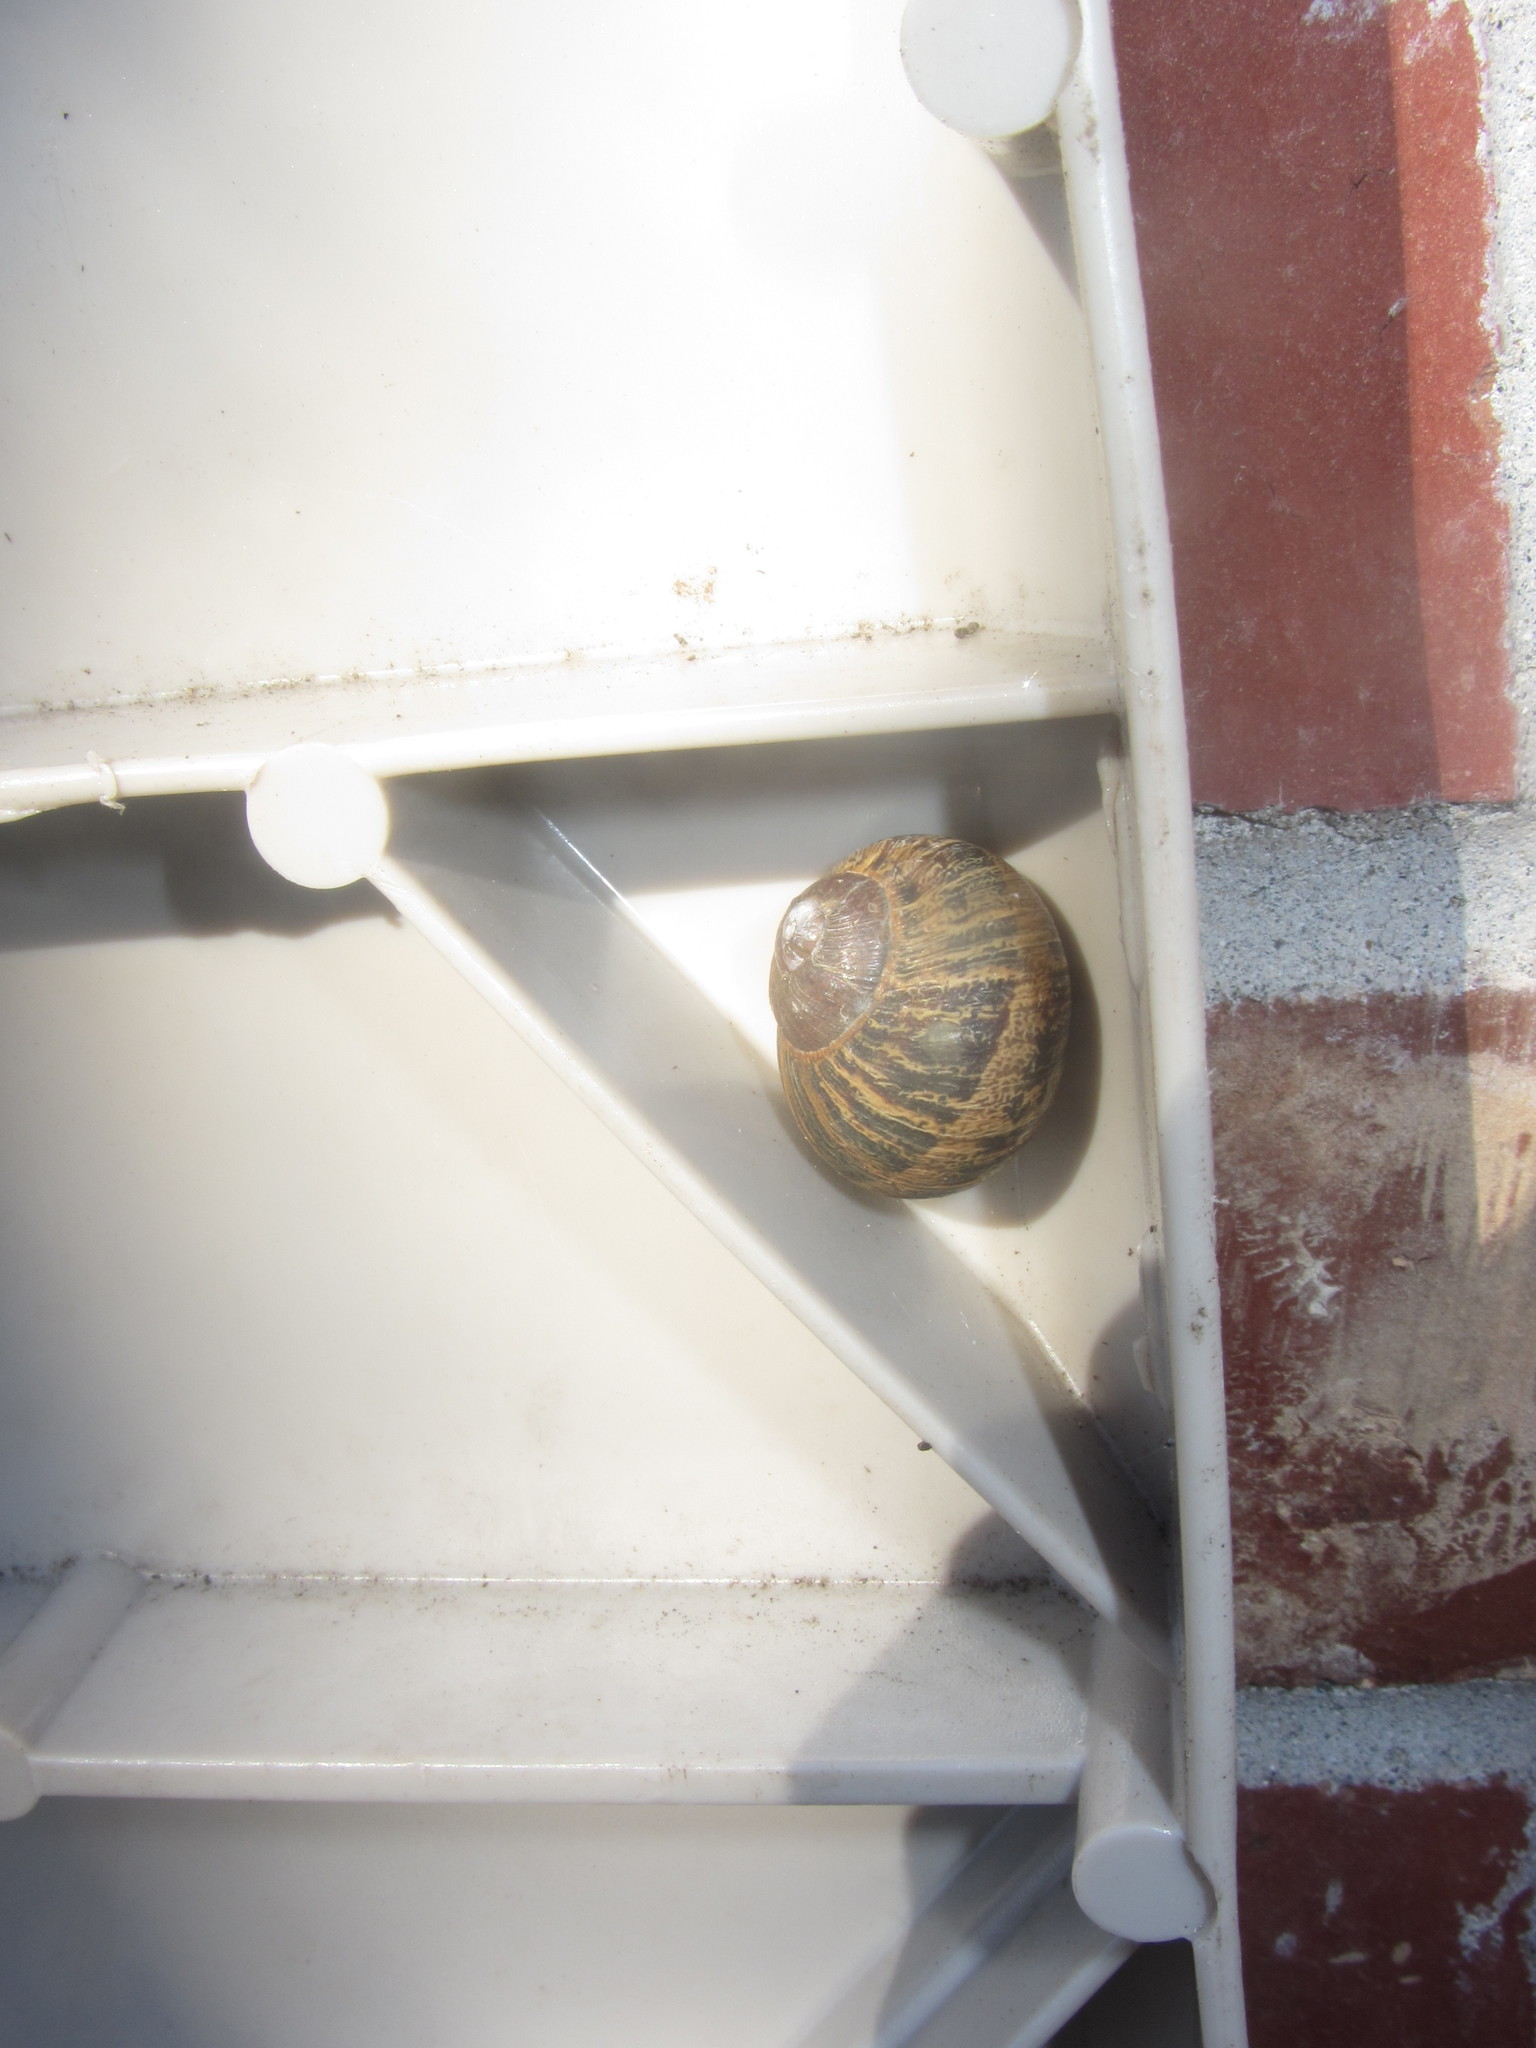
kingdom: Animalia
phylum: Mollusca
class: Gastropoda
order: Stylommatophora
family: Helicidae
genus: Cornu
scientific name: Cornu aspersum
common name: Brown garden snail
